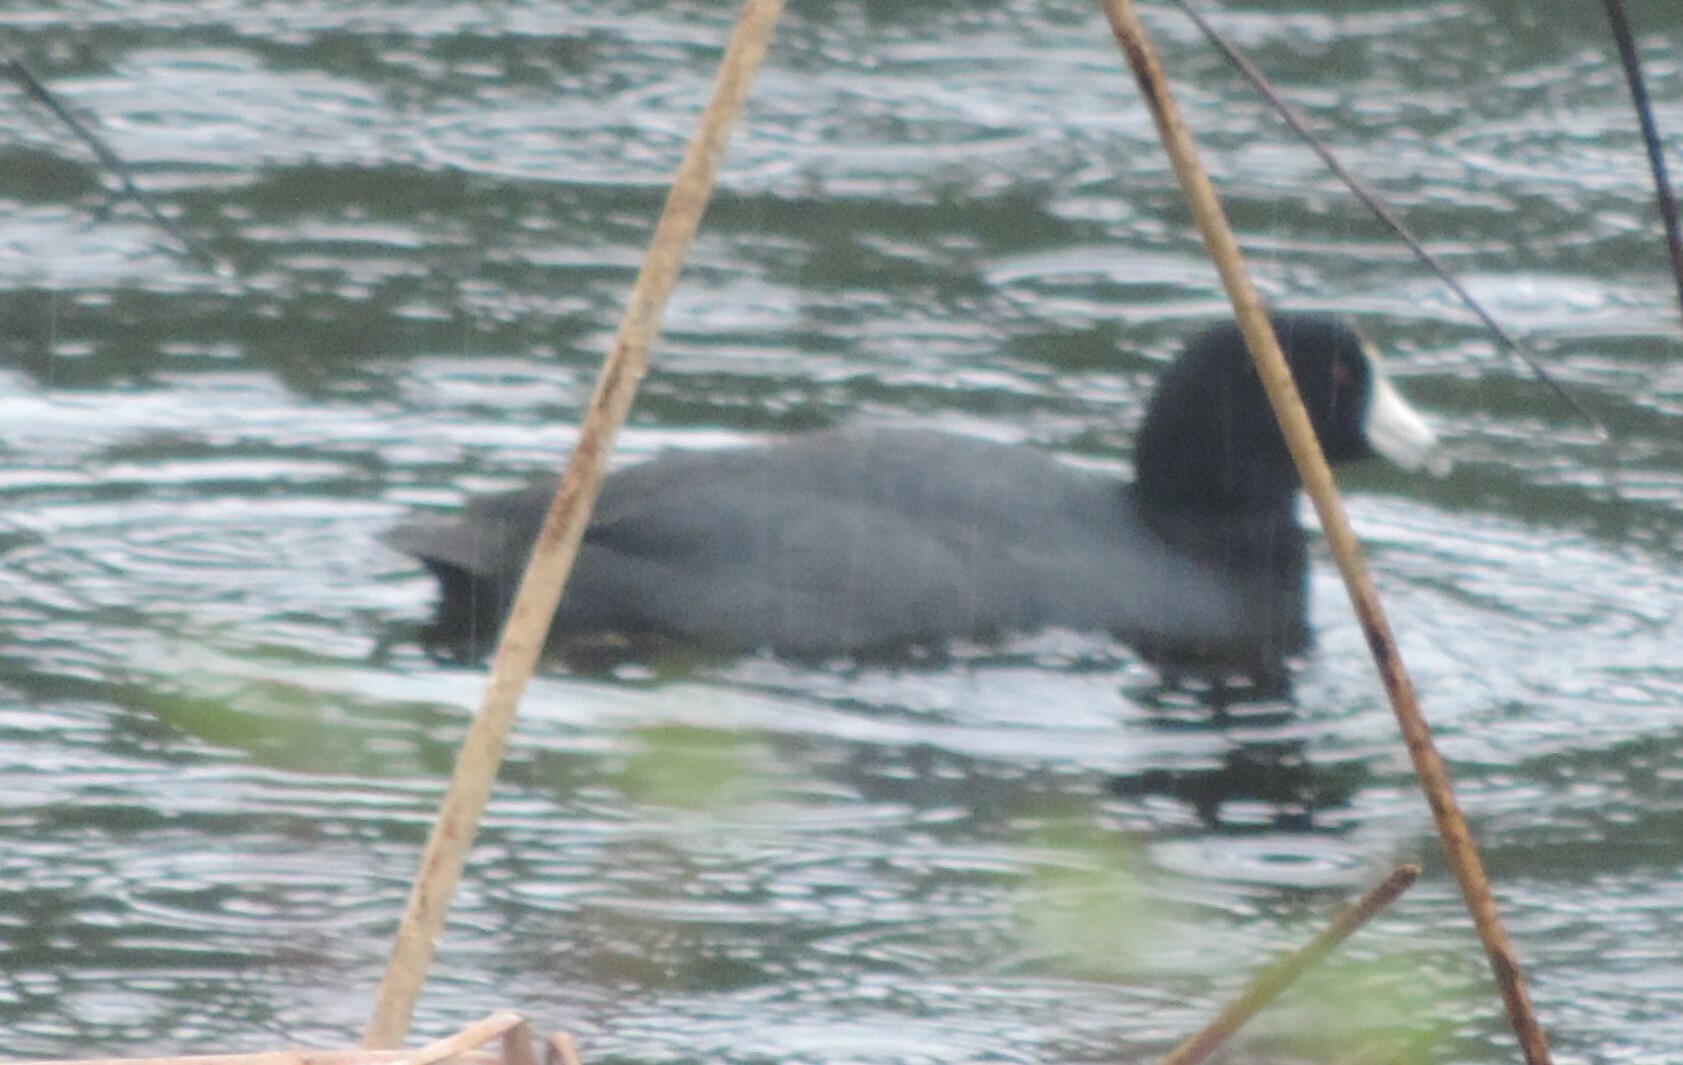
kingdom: Animalia
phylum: Chordata
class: Aves
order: Gruiformes
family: Rallidae
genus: Fulica
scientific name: Fulica americana
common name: American coot
